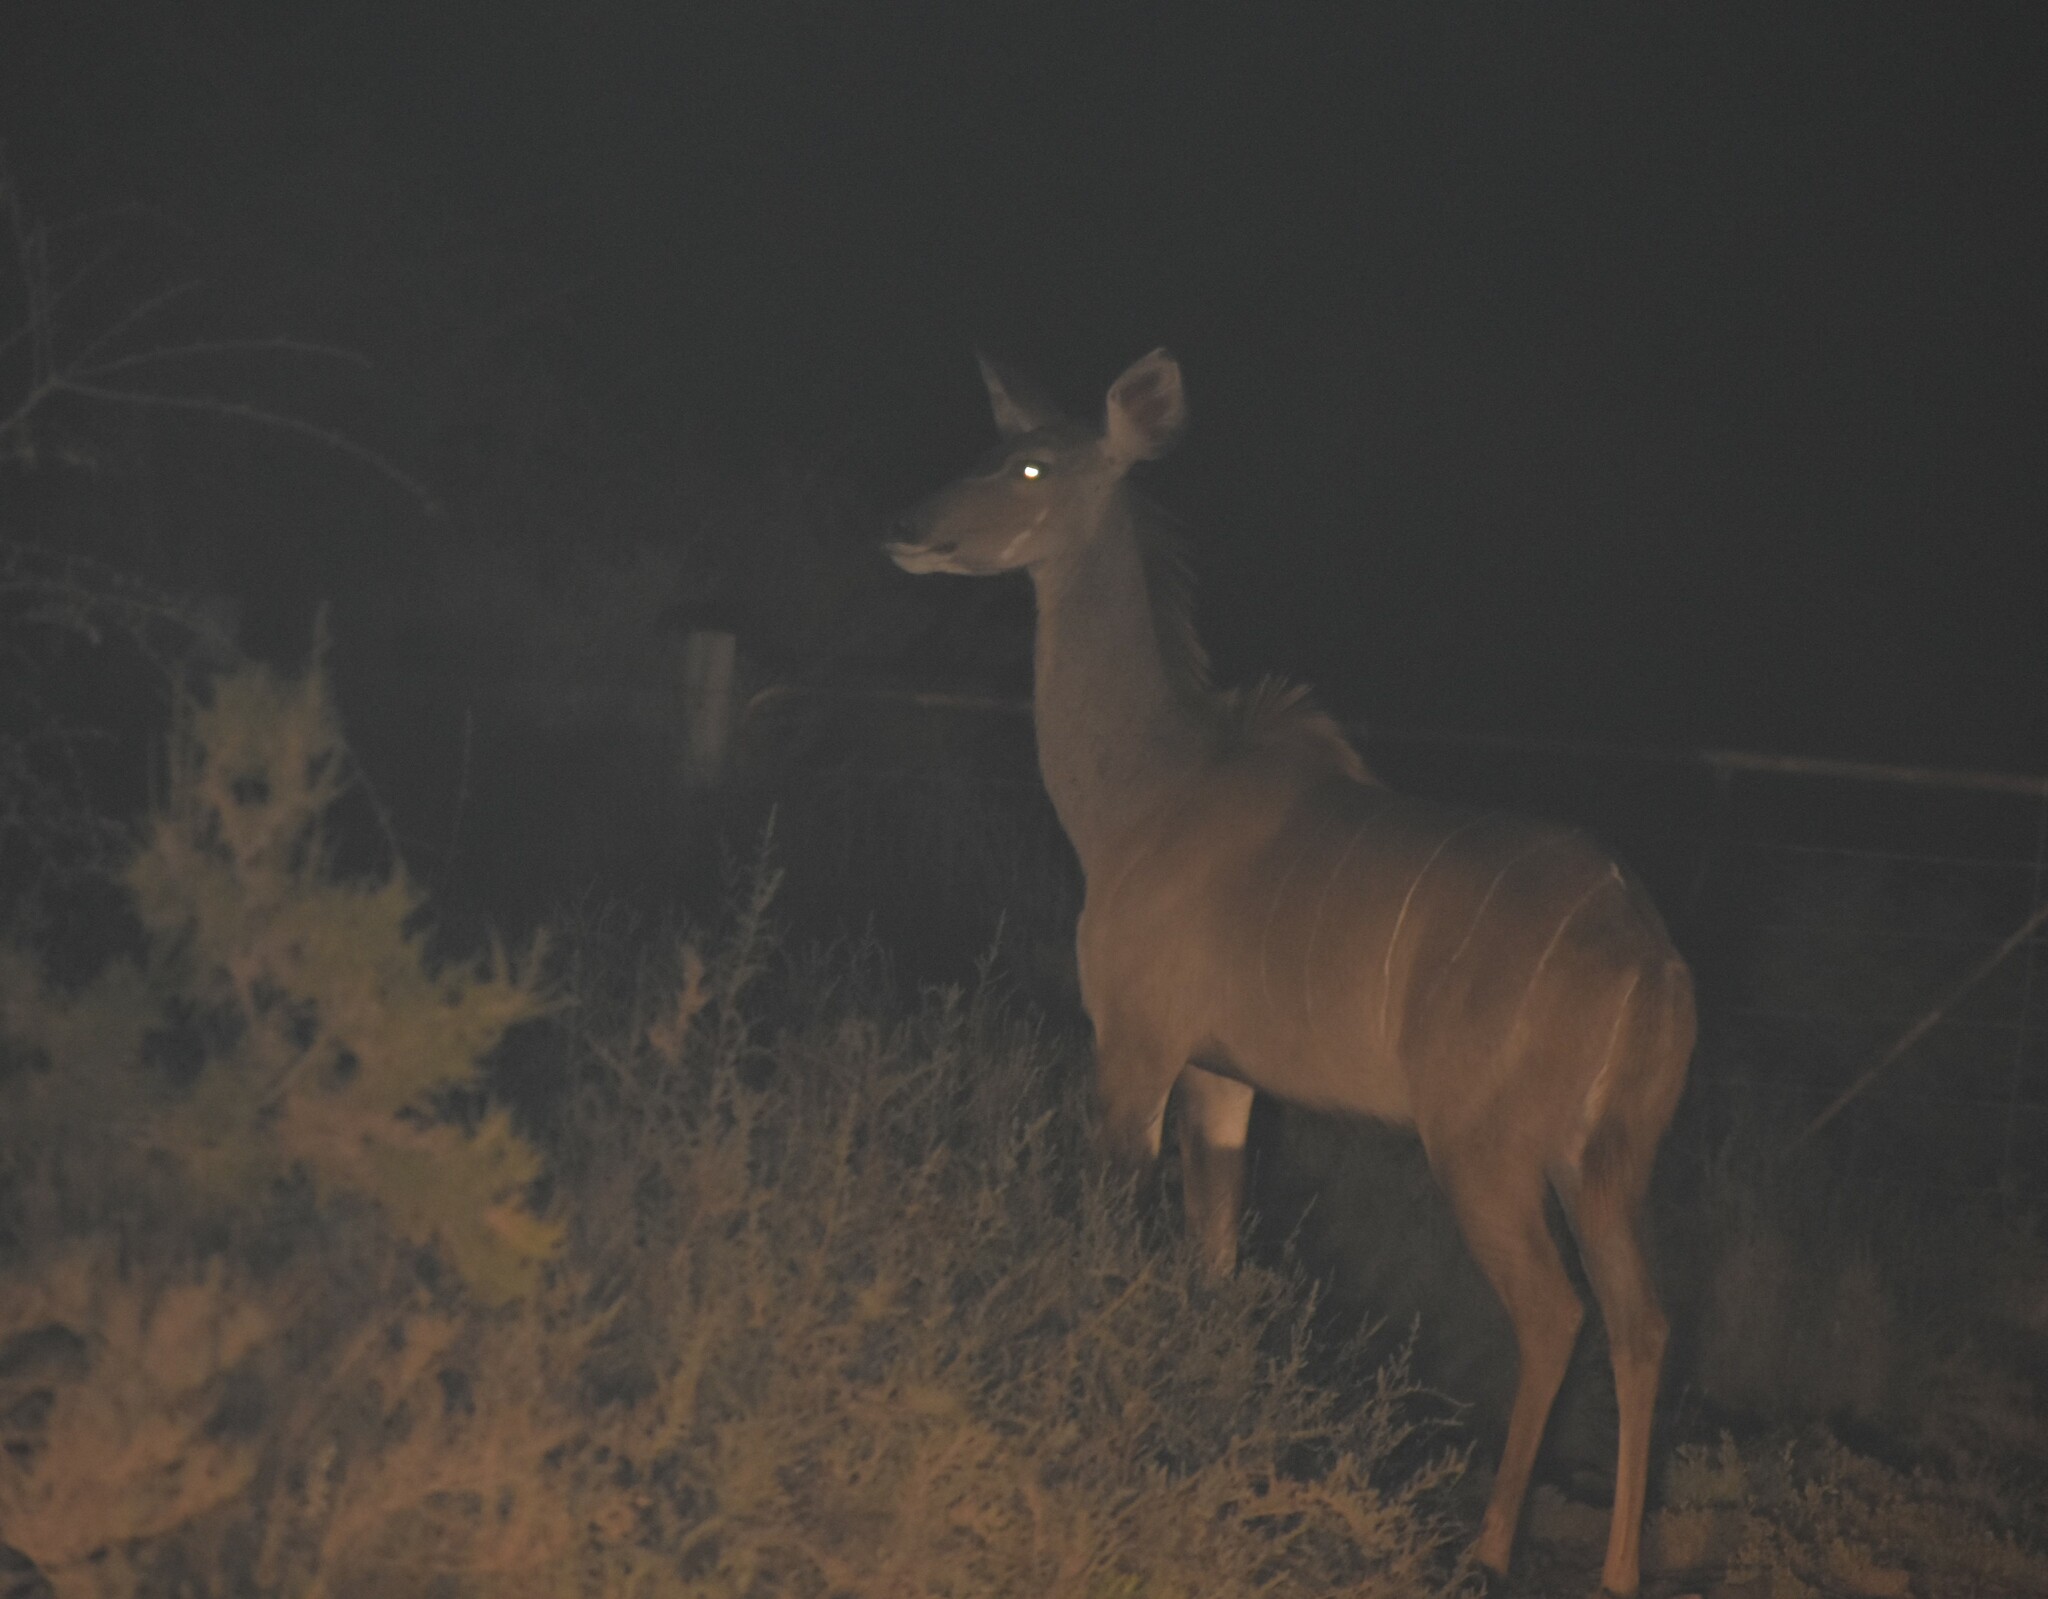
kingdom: Animalia
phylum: Chordata
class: Mammalia
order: Artiodactyla
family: Bovidae
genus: Tragelaphus
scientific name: Tragelaphus strepsiceros
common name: Greater kudu
